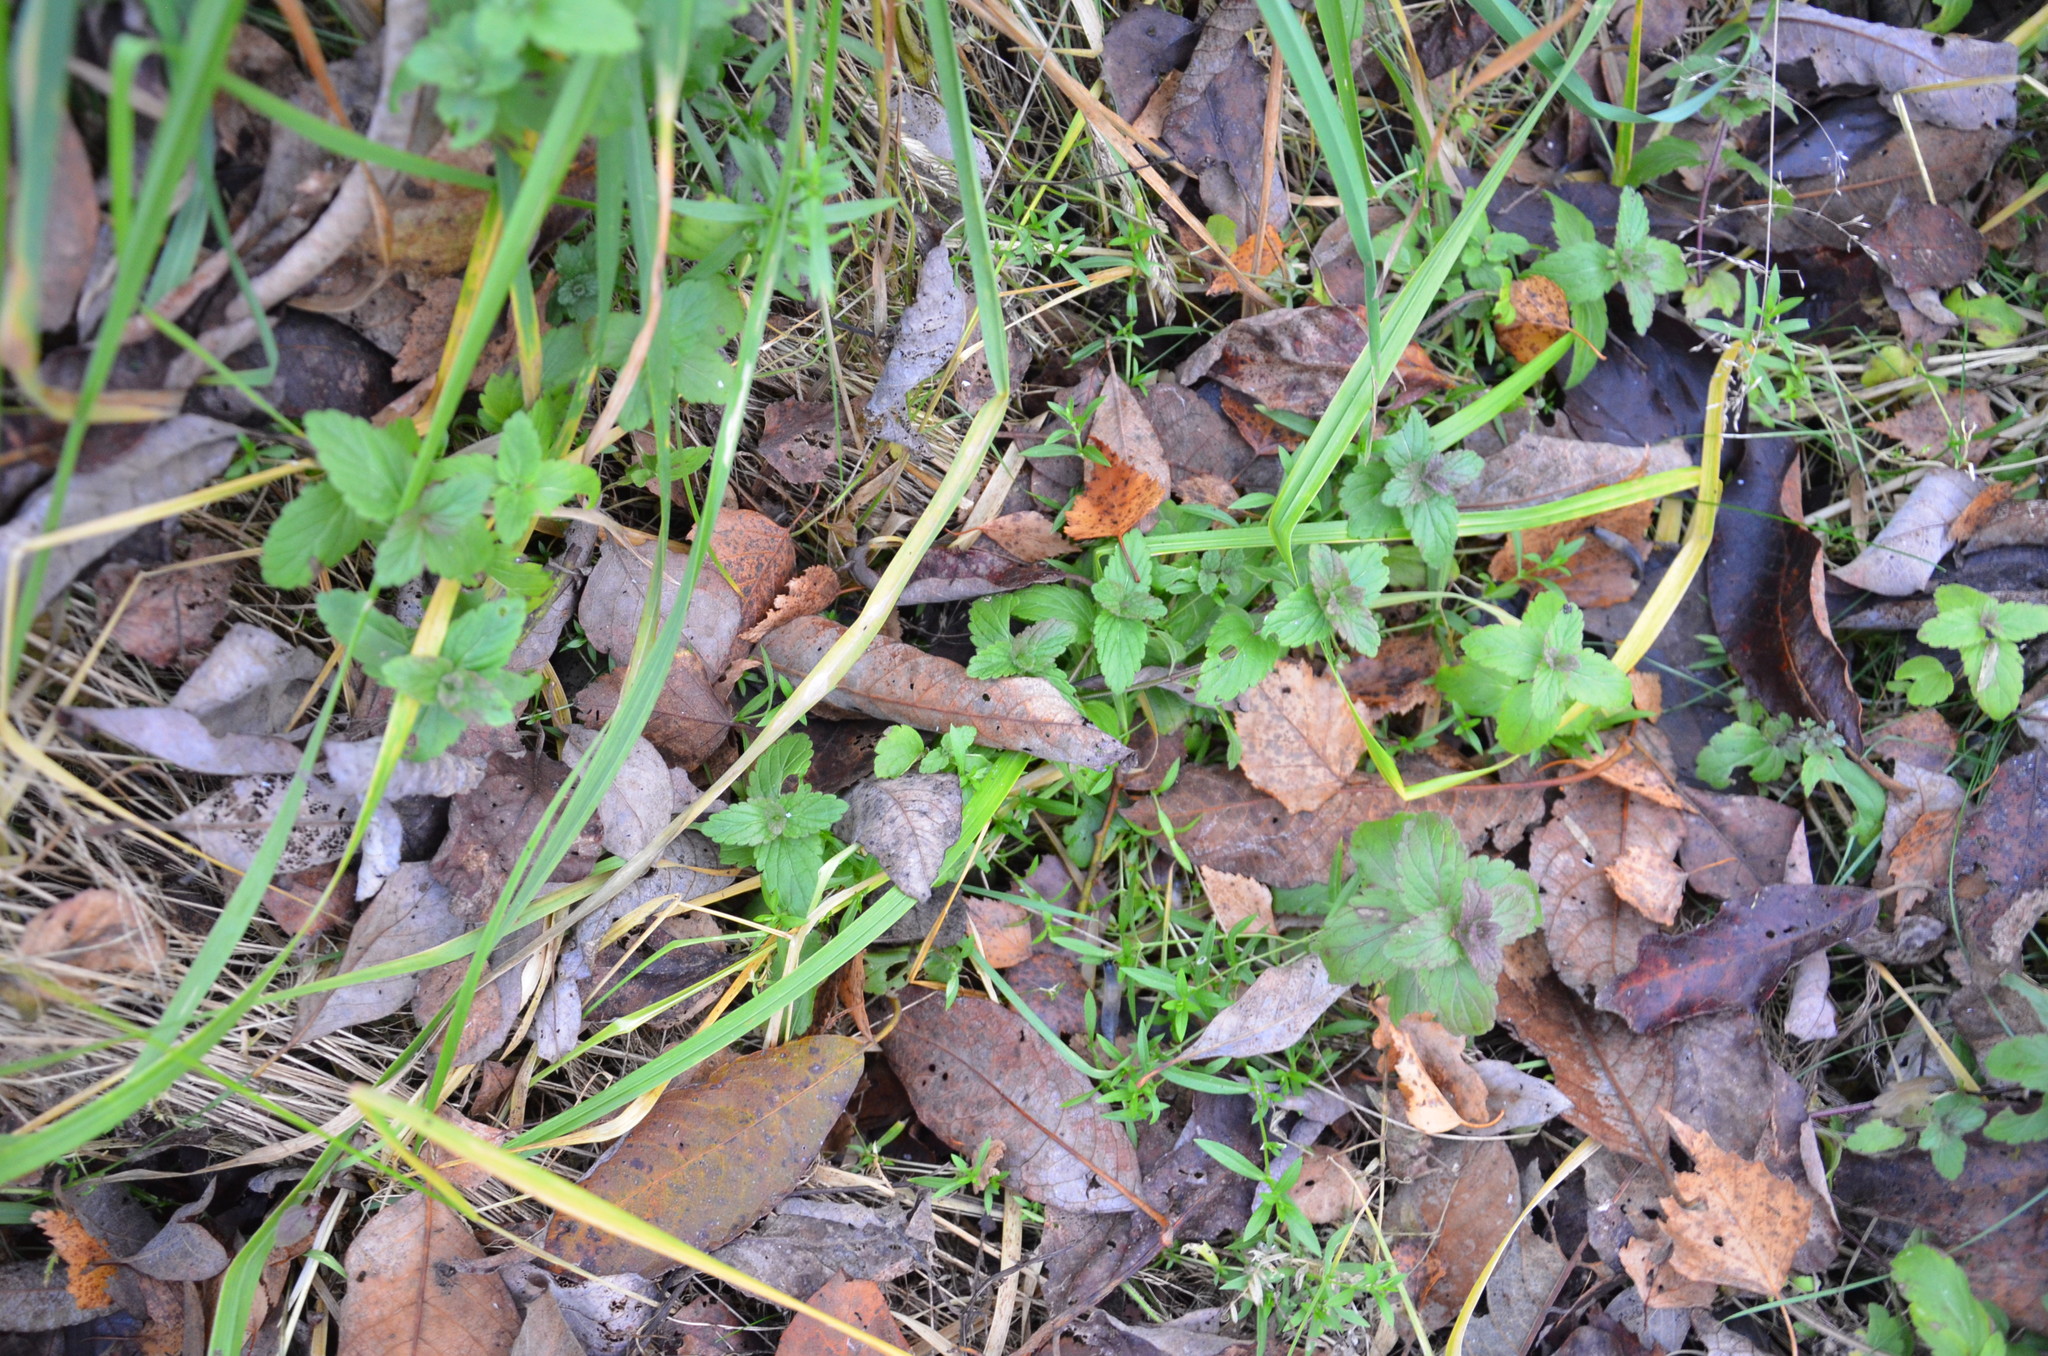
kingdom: Plantae
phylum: Tracheophyta
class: Magnoliopsida
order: Lamiales
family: Plantaginaceae
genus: Veronica
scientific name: Veronica chamaedrys
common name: Germander speedwell
